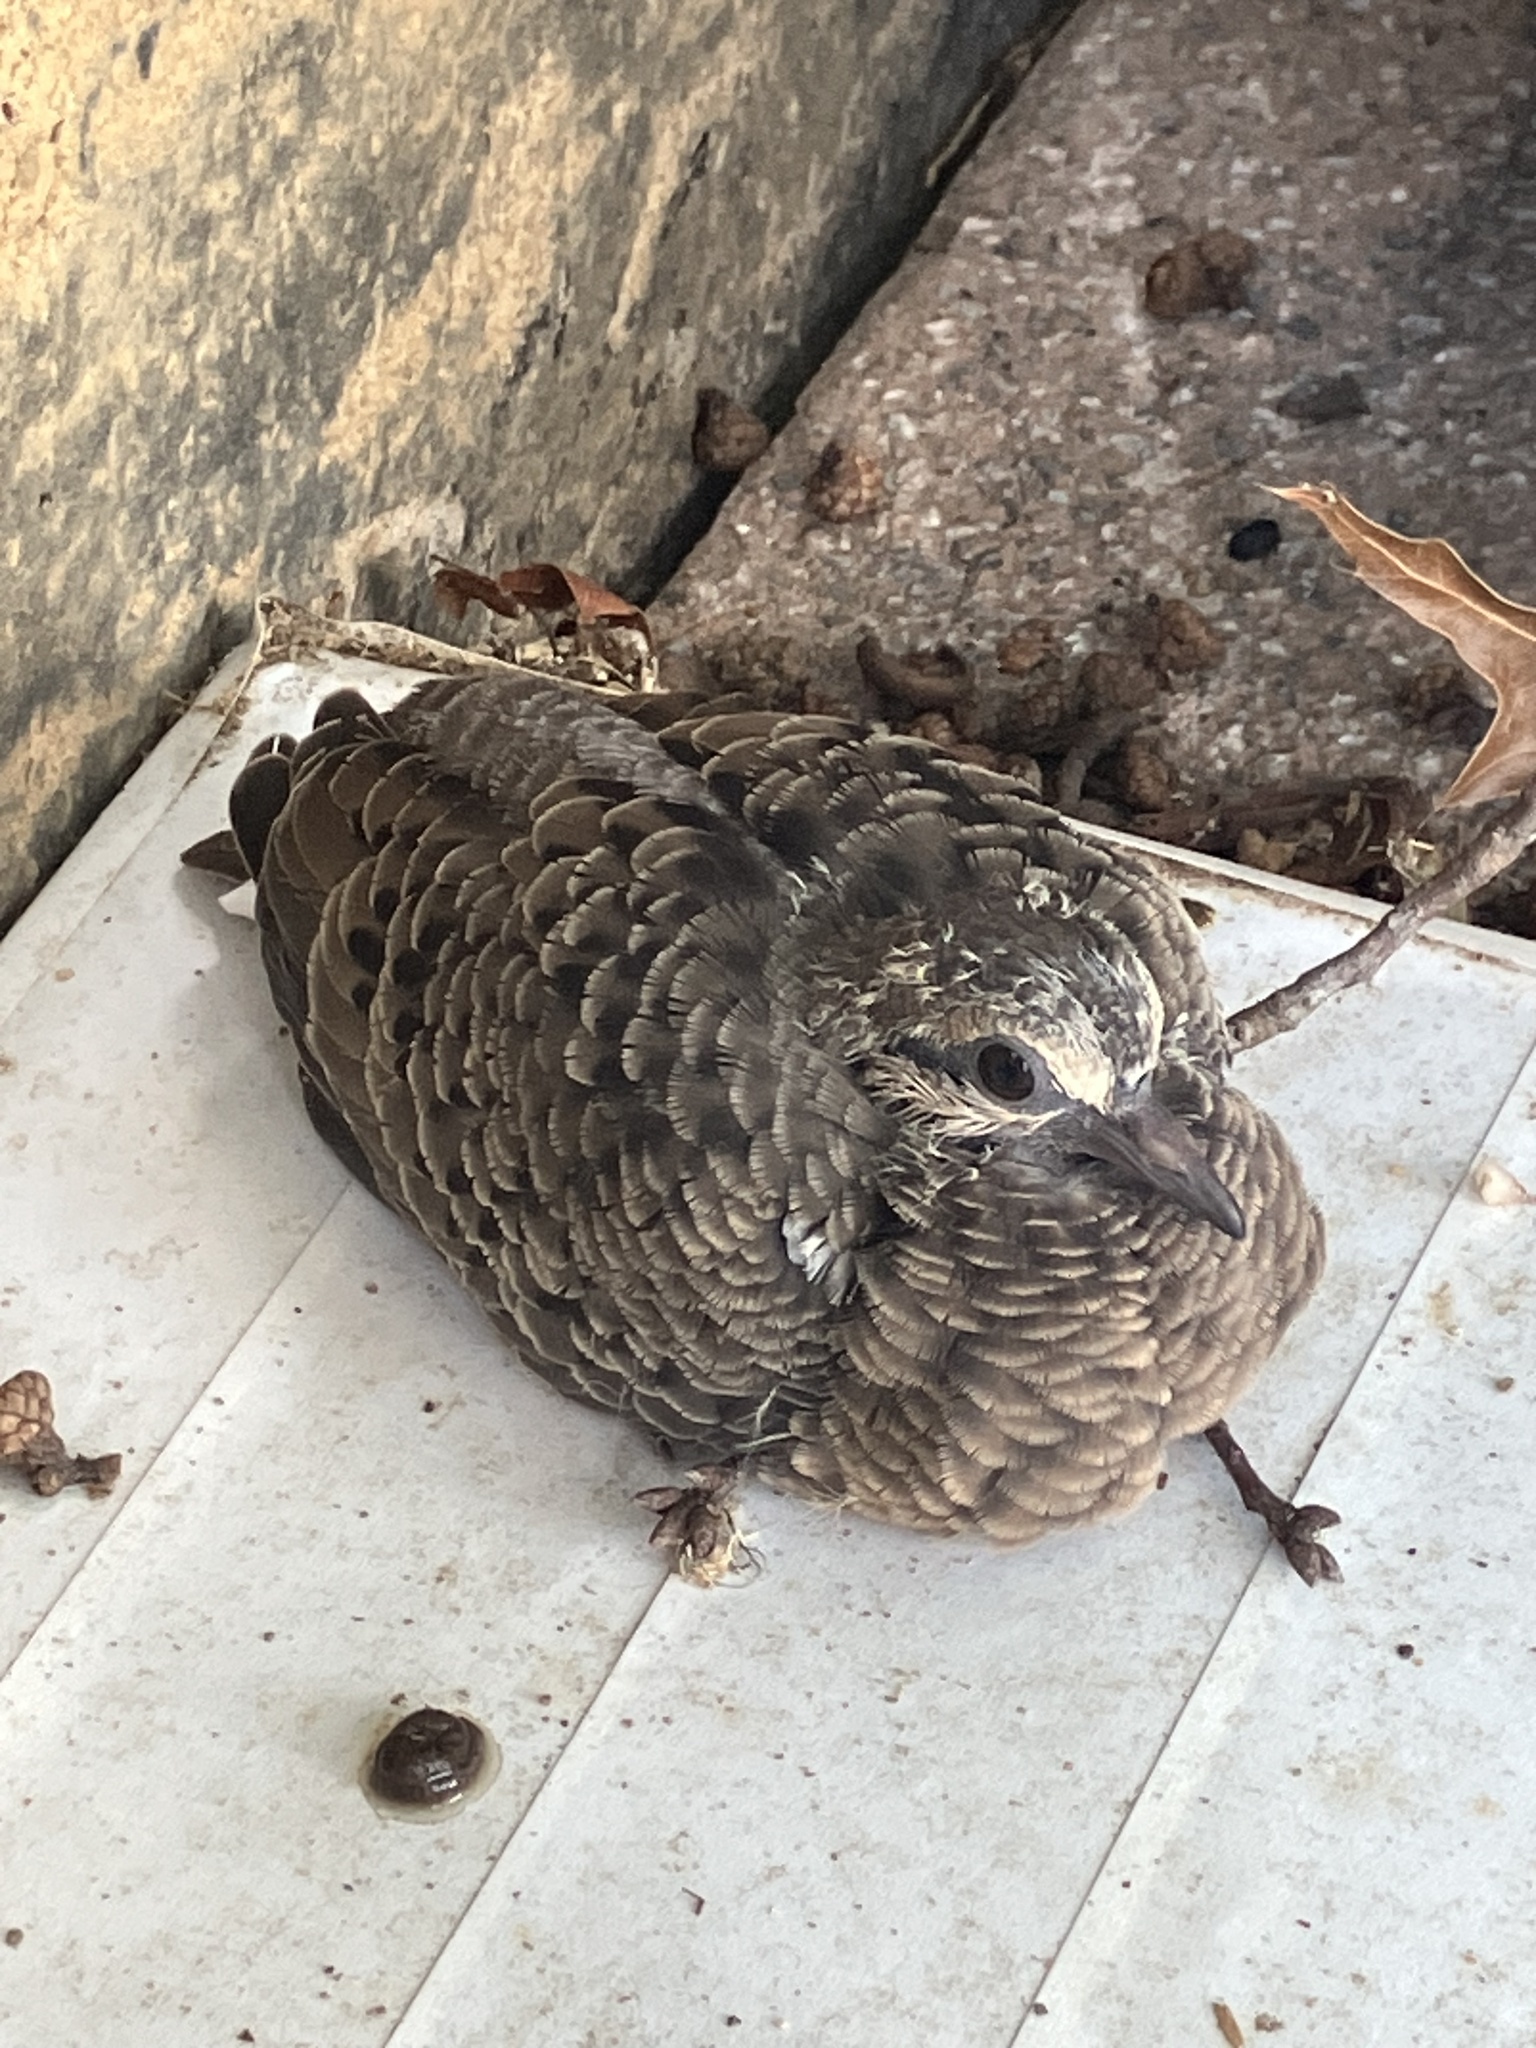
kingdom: Animalia
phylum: Chordata
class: Aves
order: Columbiformes
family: Columbidae
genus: Zenaida
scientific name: Zenaida macroura
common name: Mourning dove
